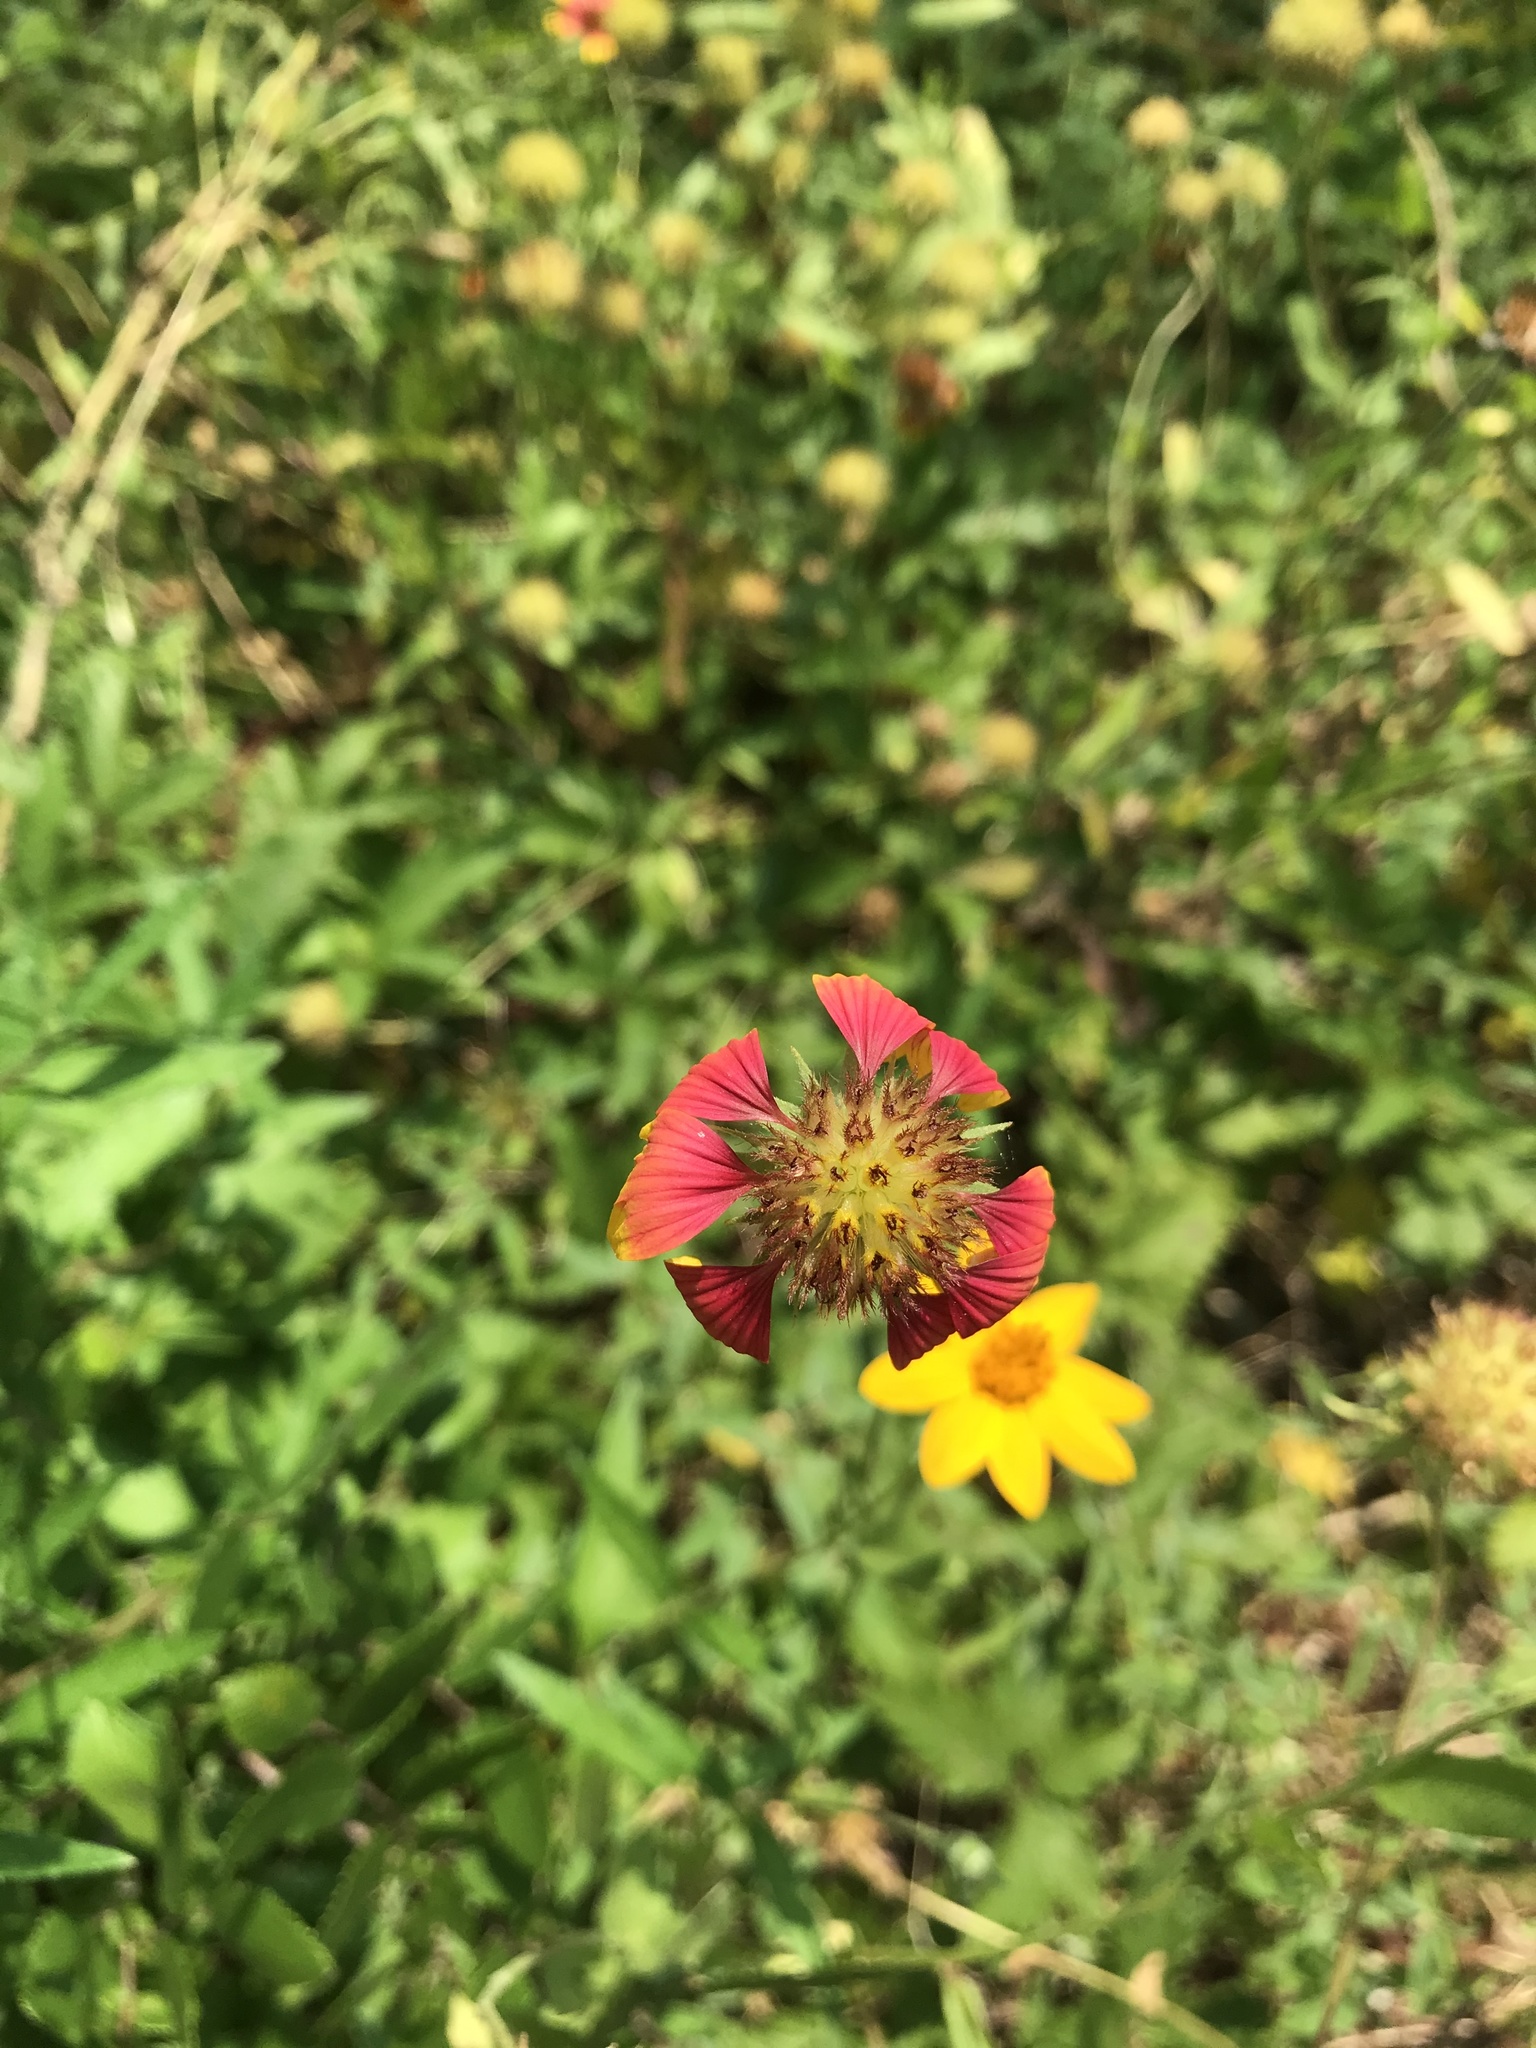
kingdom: Plantae
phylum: Tracheophyta
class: Magnoliopsida
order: Asterales
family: Asteraceae
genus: Gaillardia
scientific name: Gaillardia pulchella
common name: Firewheel
